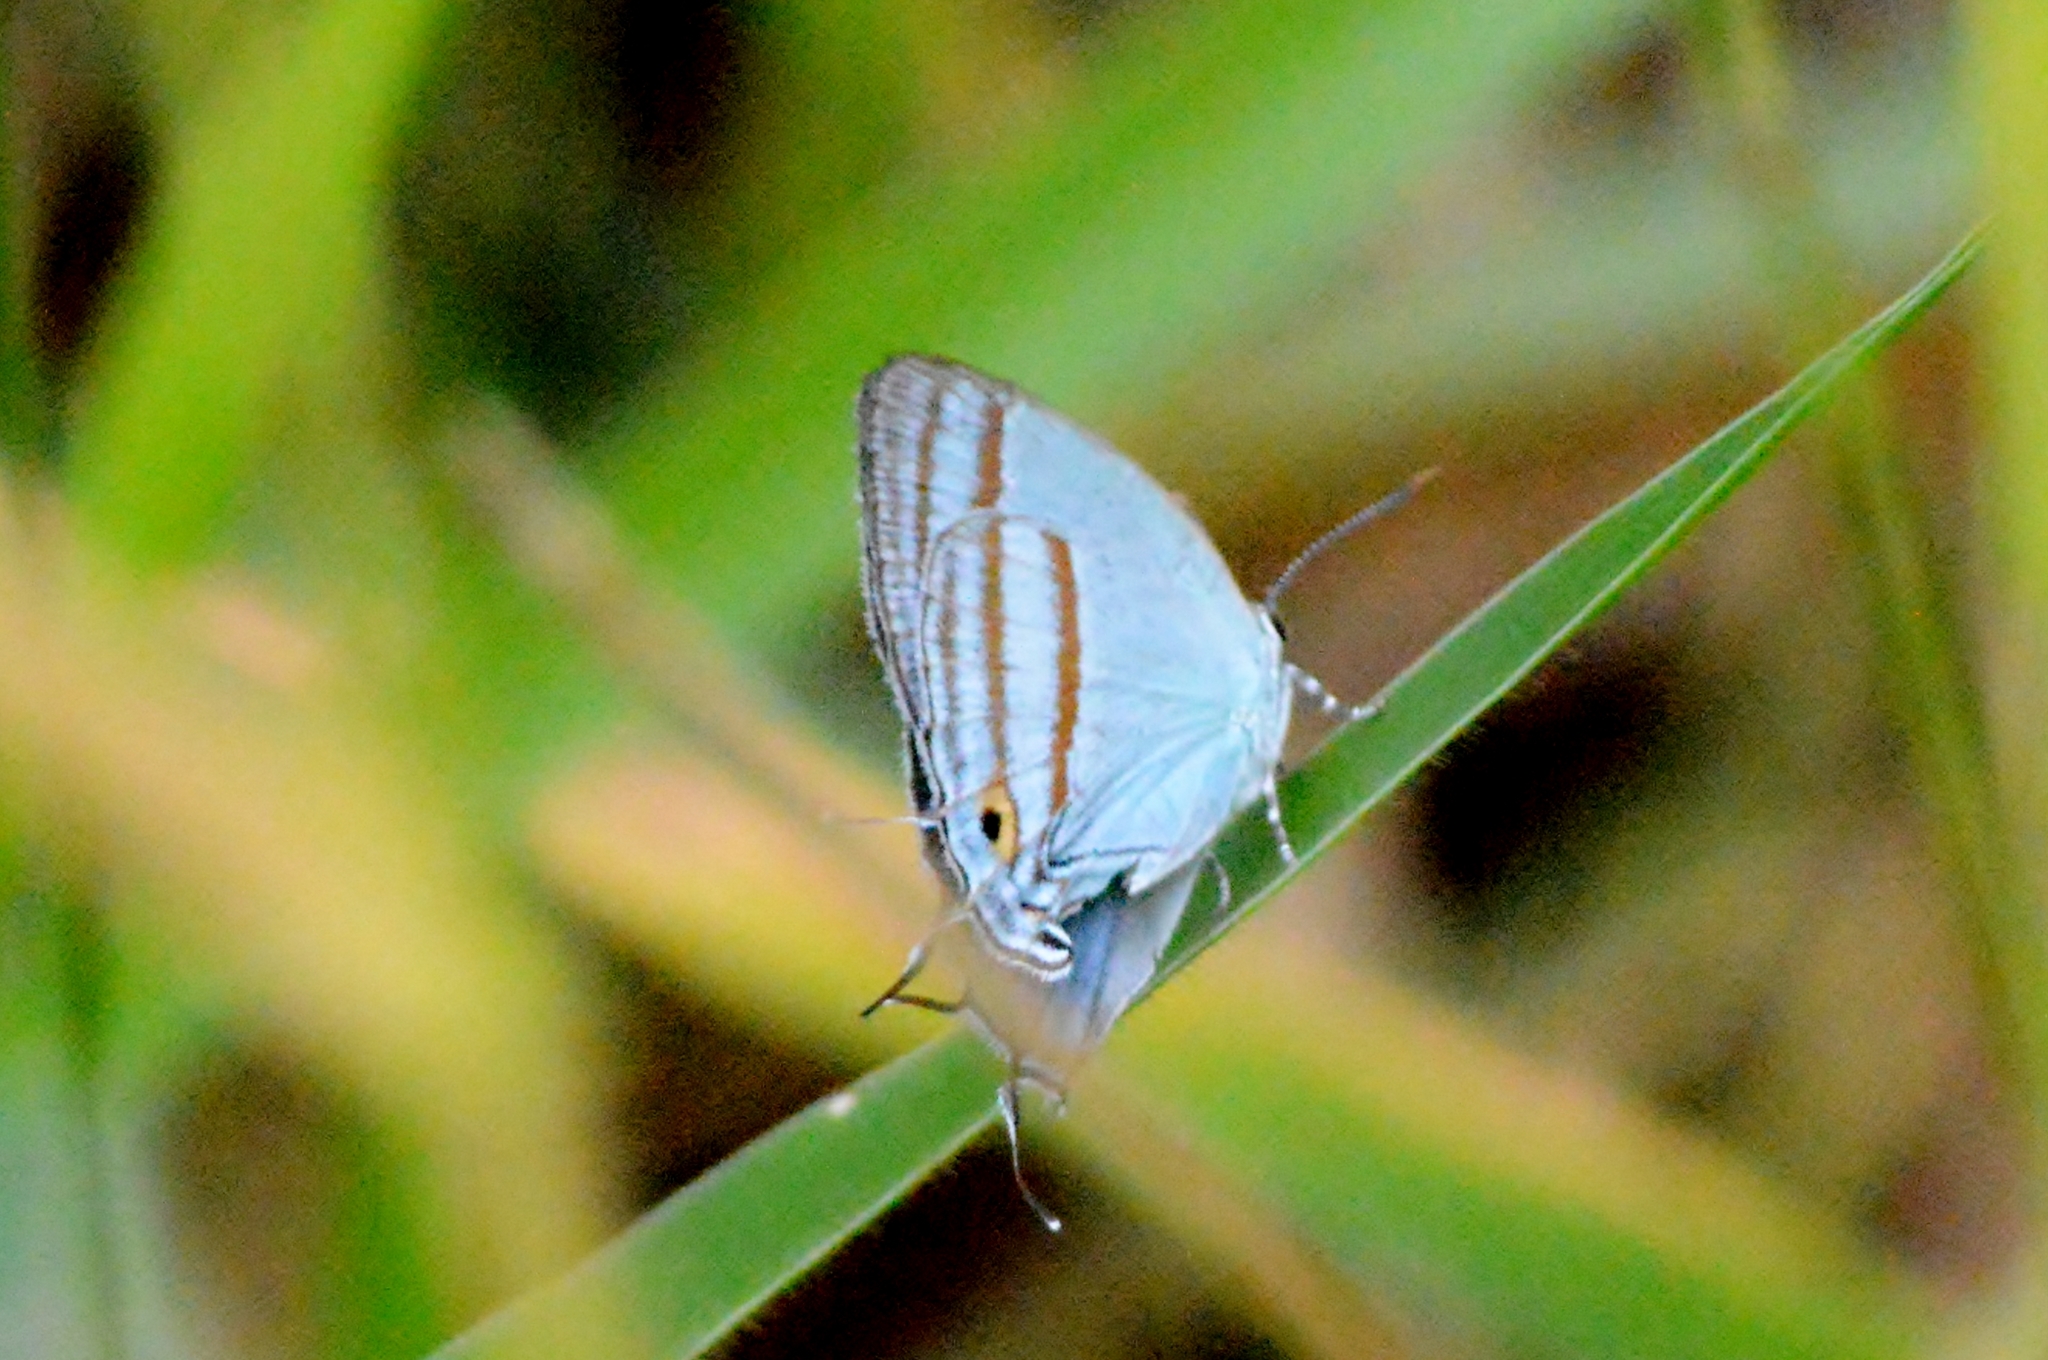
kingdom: Animalia
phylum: Arthropoda
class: Insecta
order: Lepidoptera
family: Lycaenidae
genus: Paiwarria
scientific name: Paiwarria venulius
